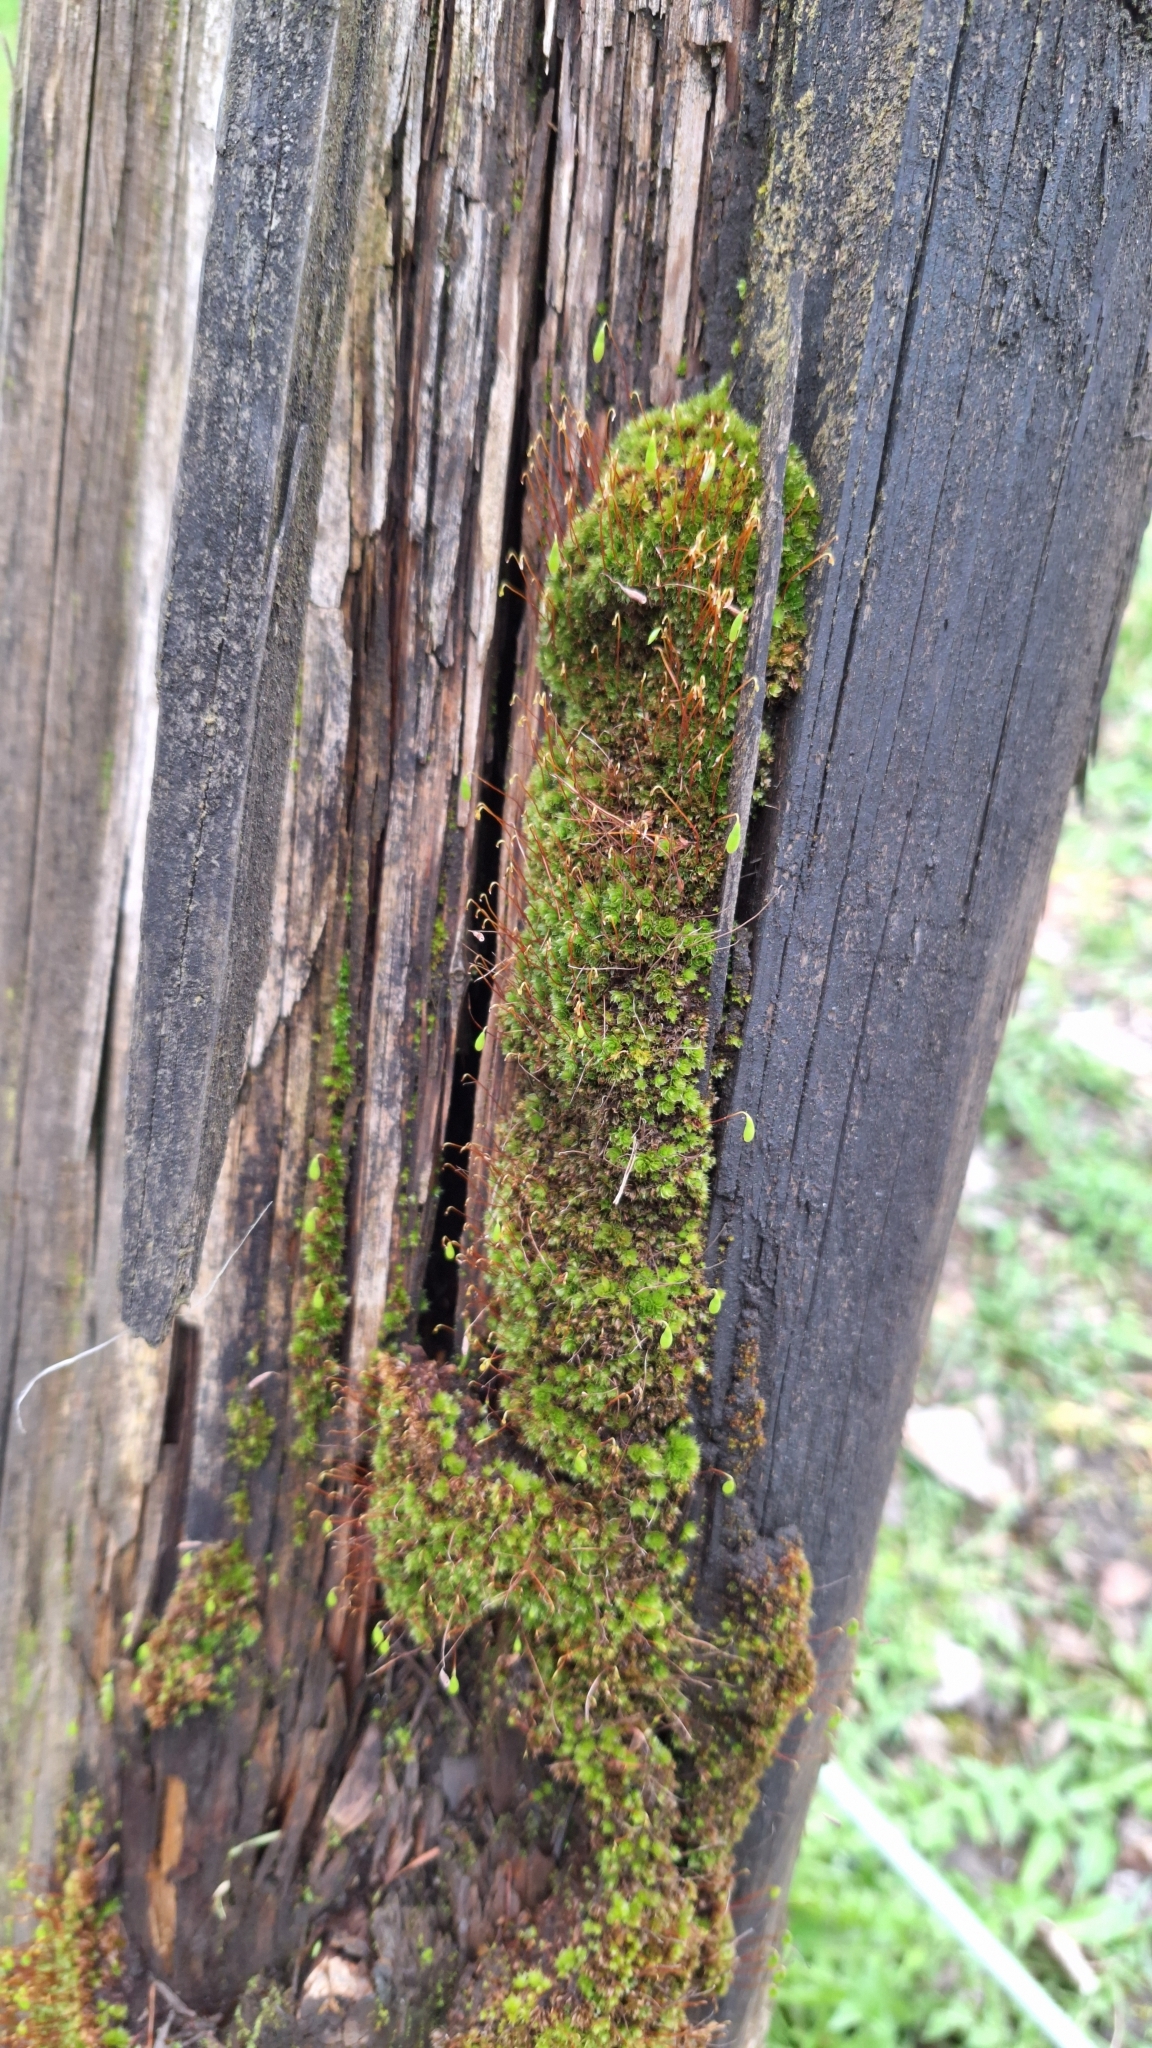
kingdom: Plantae
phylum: Bryophyta
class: Bryopsida
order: Bryales
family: Bryaceae
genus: Rosulabryum
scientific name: Rosulabryum capillare
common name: Capillary thread-moss
